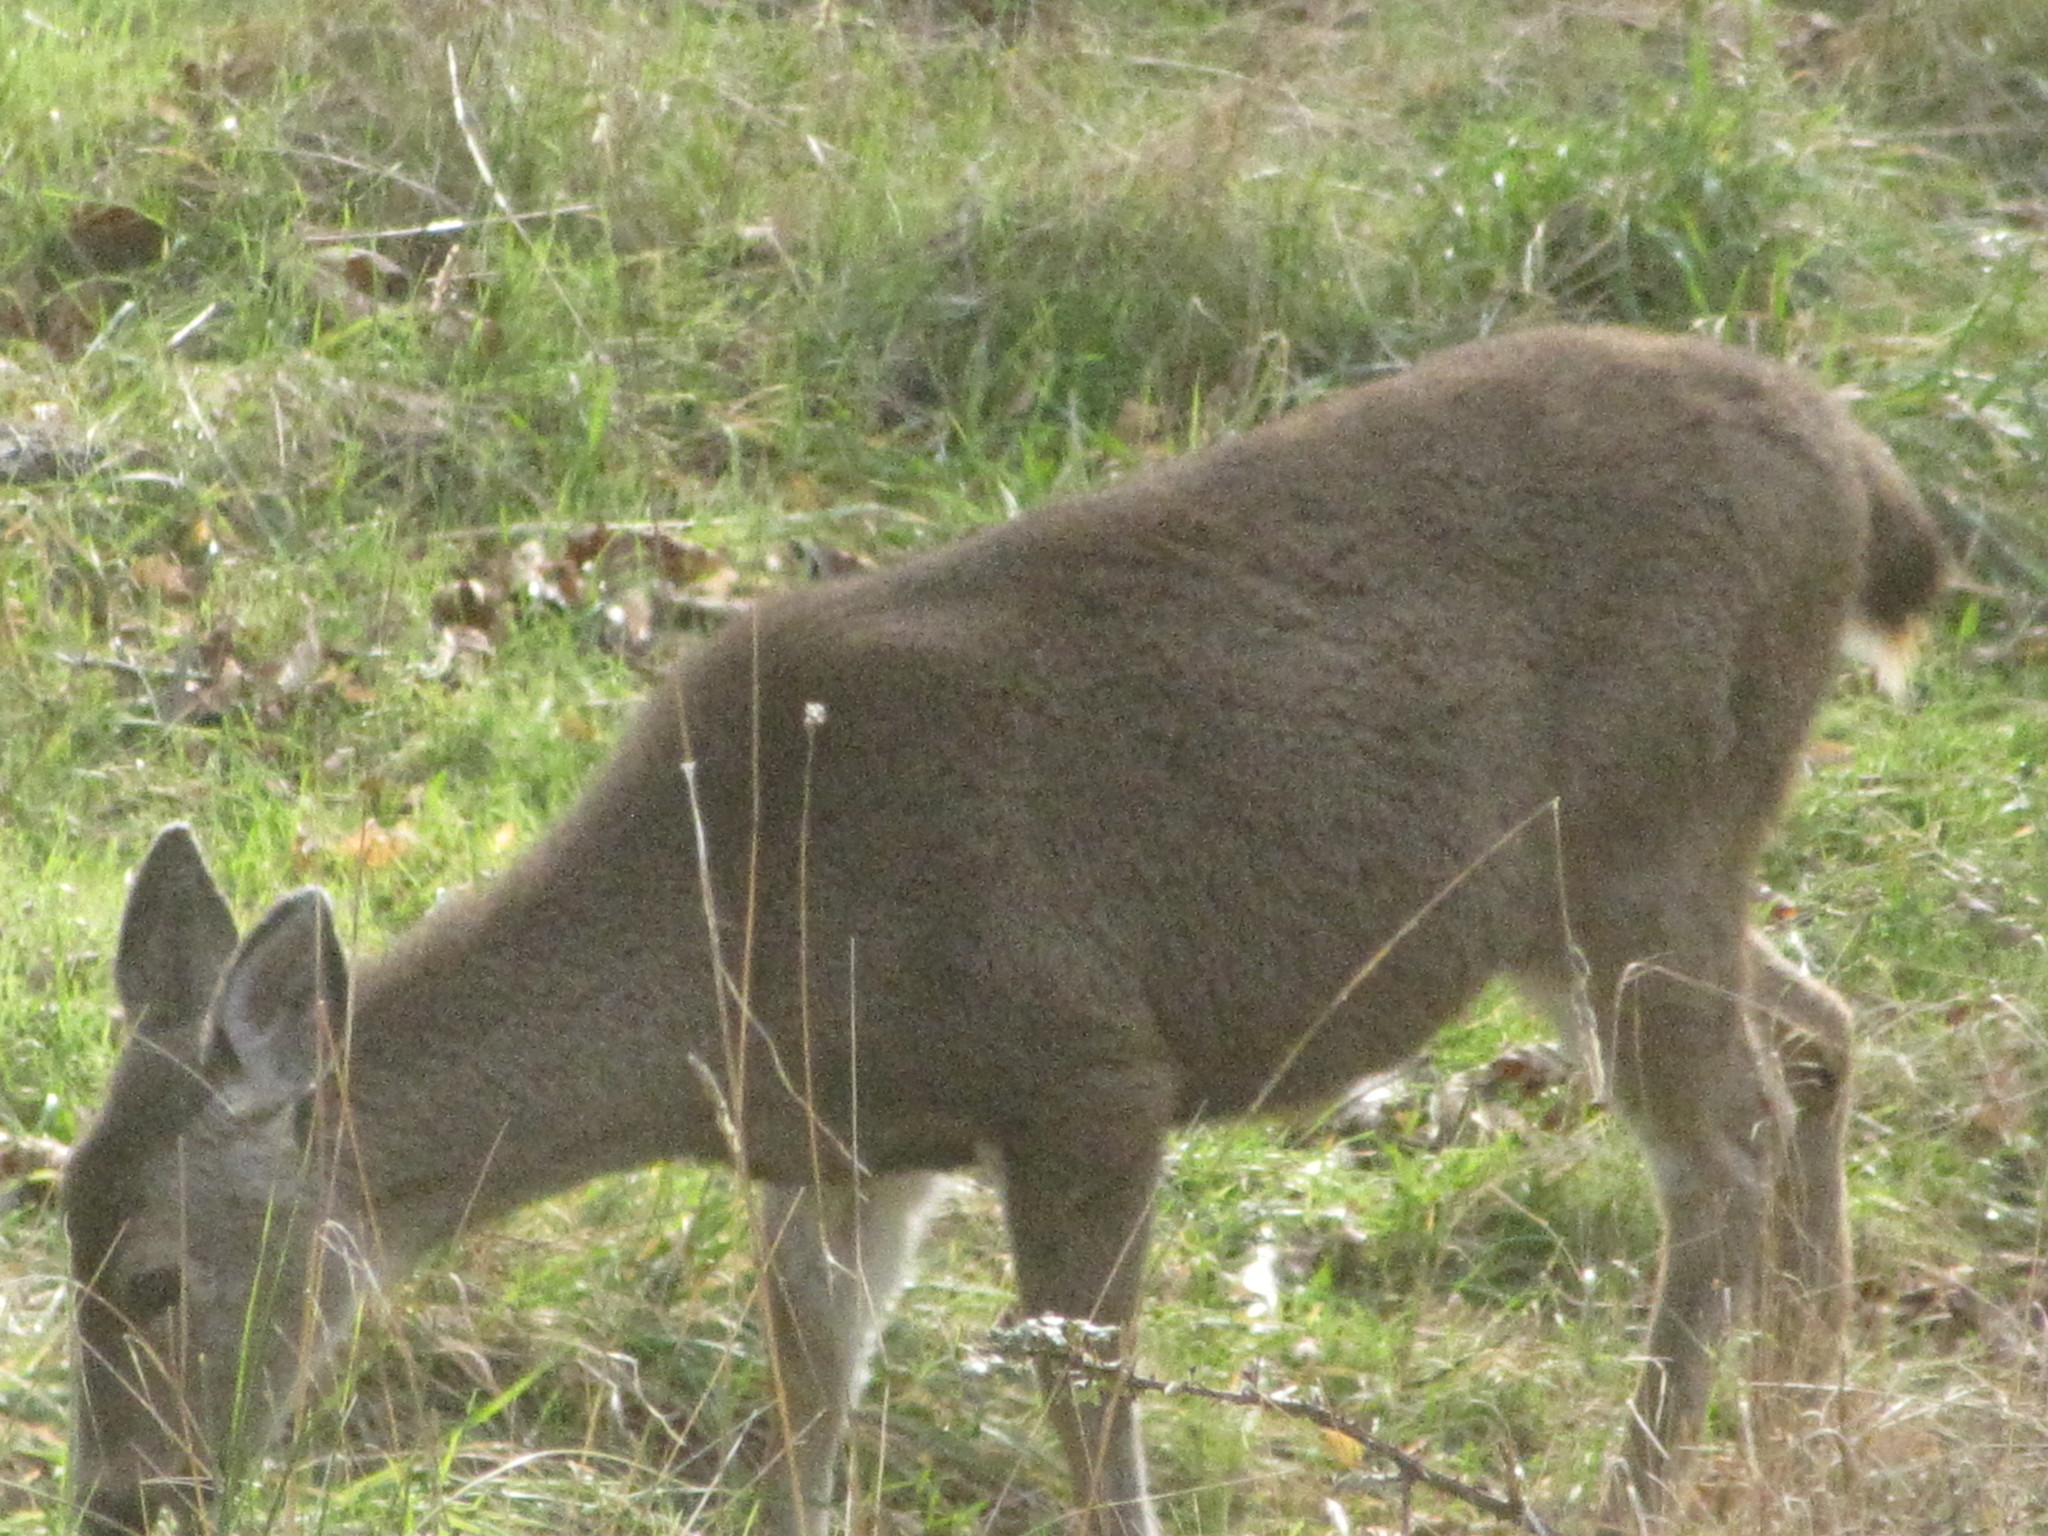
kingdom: Animalia
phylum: Chordata
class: Mammalia
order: Artiodactyla
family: Cervidae
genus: Odocoileus
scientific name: Odocoileus hemionus
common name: Mule deer
